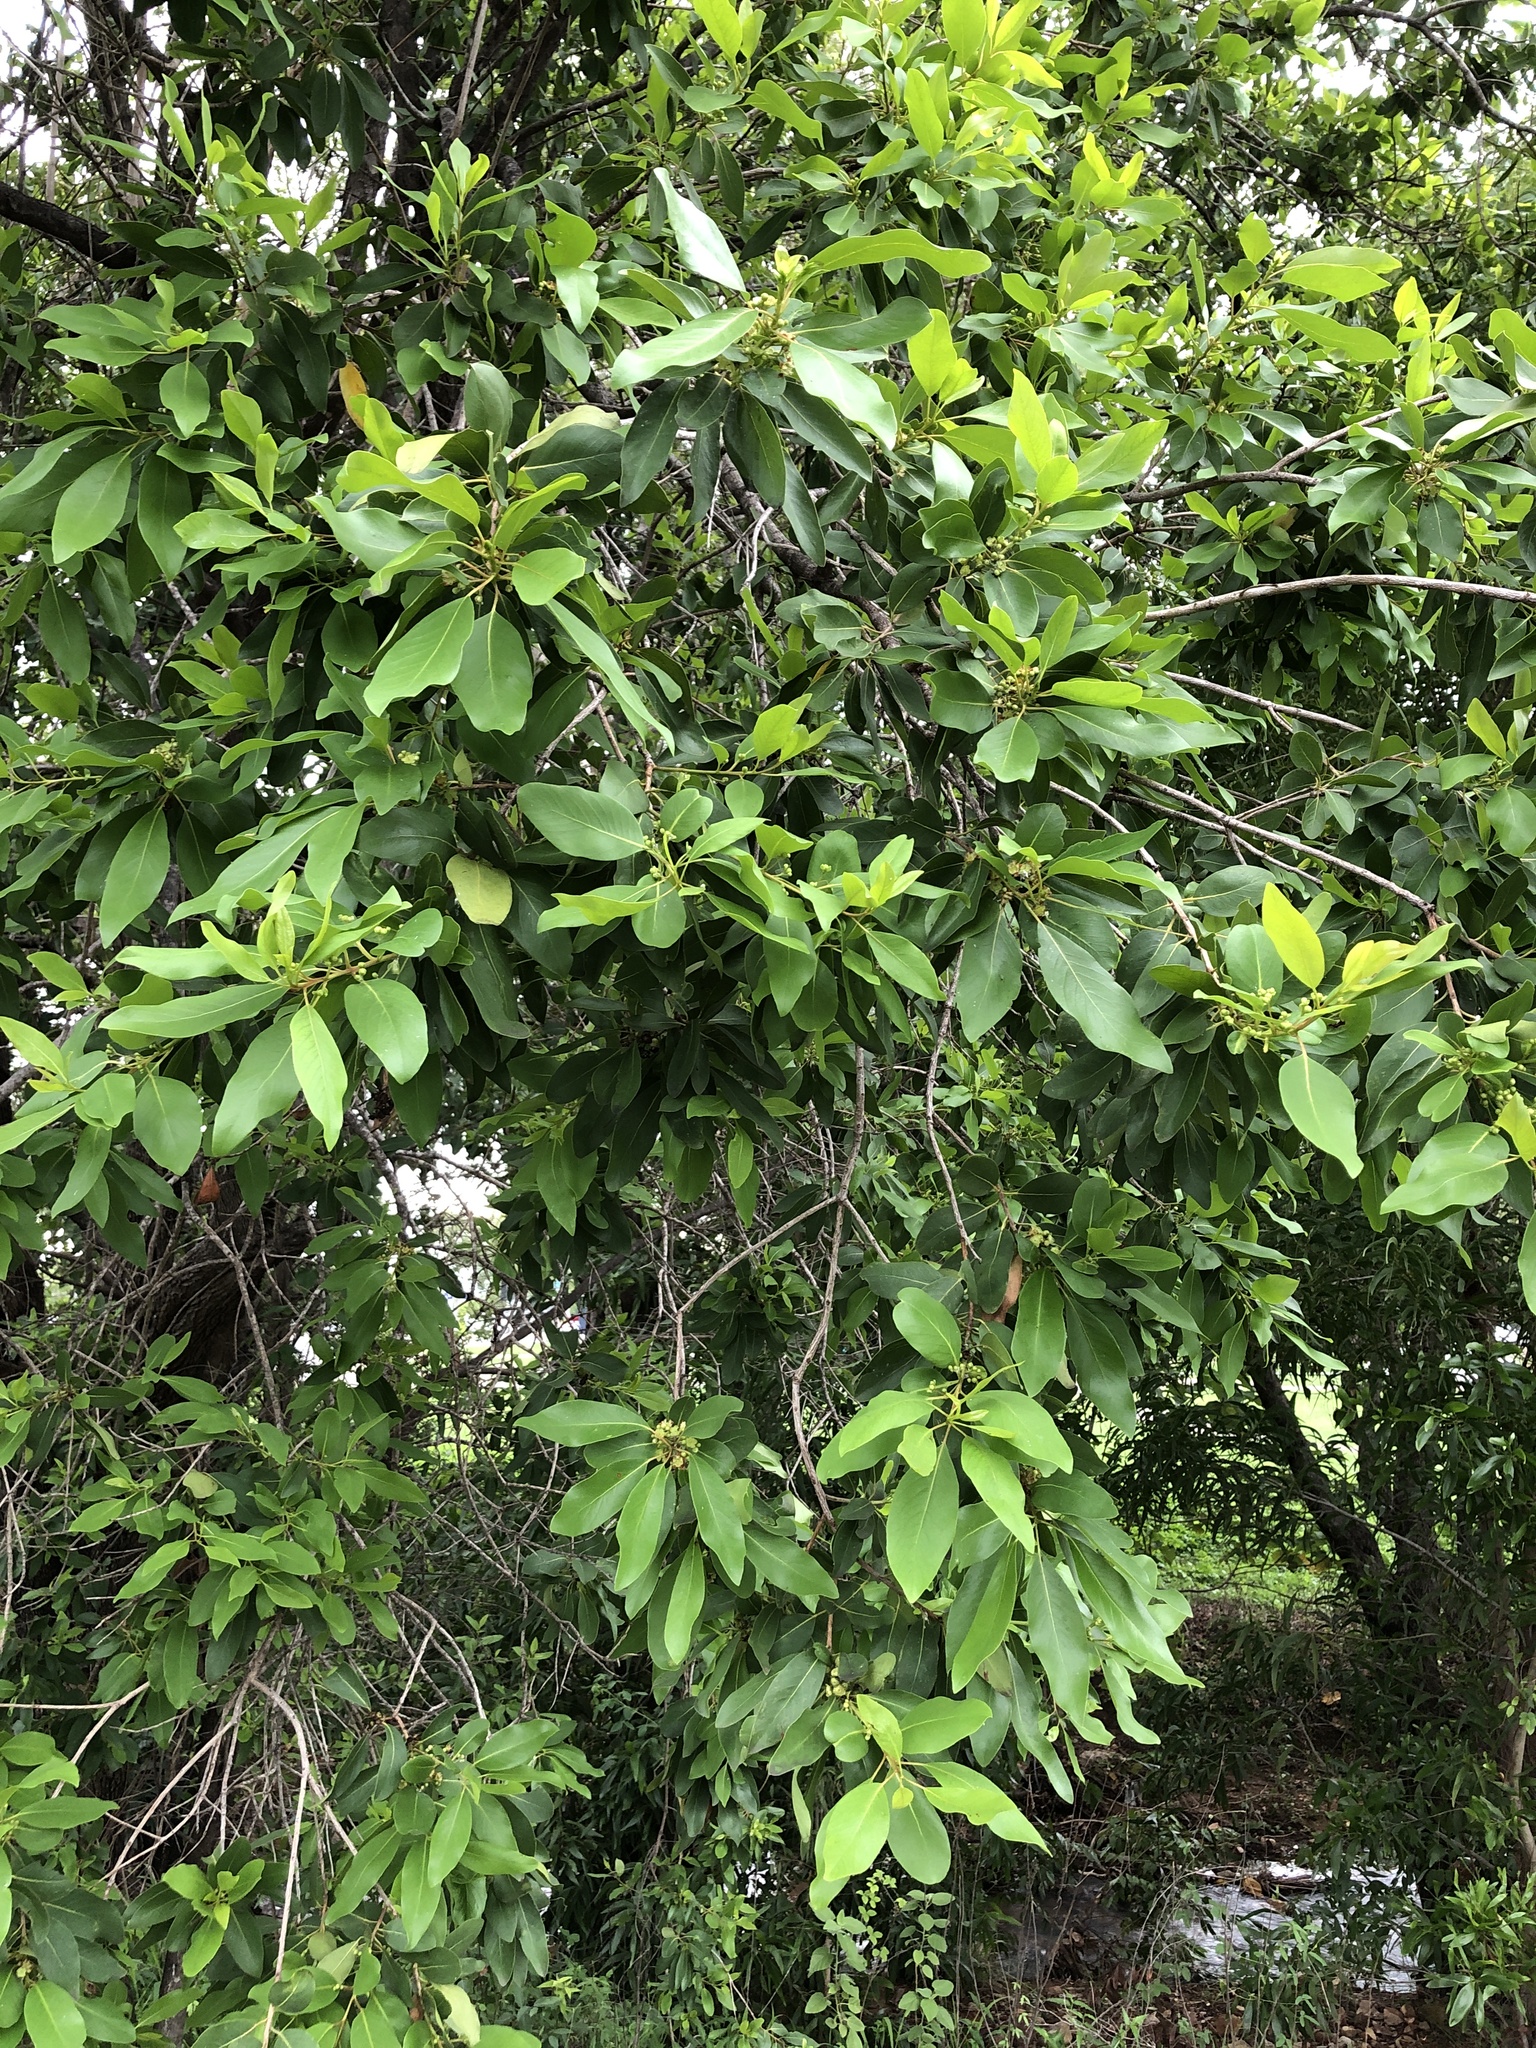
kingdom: Plantae
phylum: Tracheophyta
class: Magnoliopsida
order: Myrtales
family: Myrtaceae
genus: Lophostemon
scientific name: Lophostemon grandiflorus
